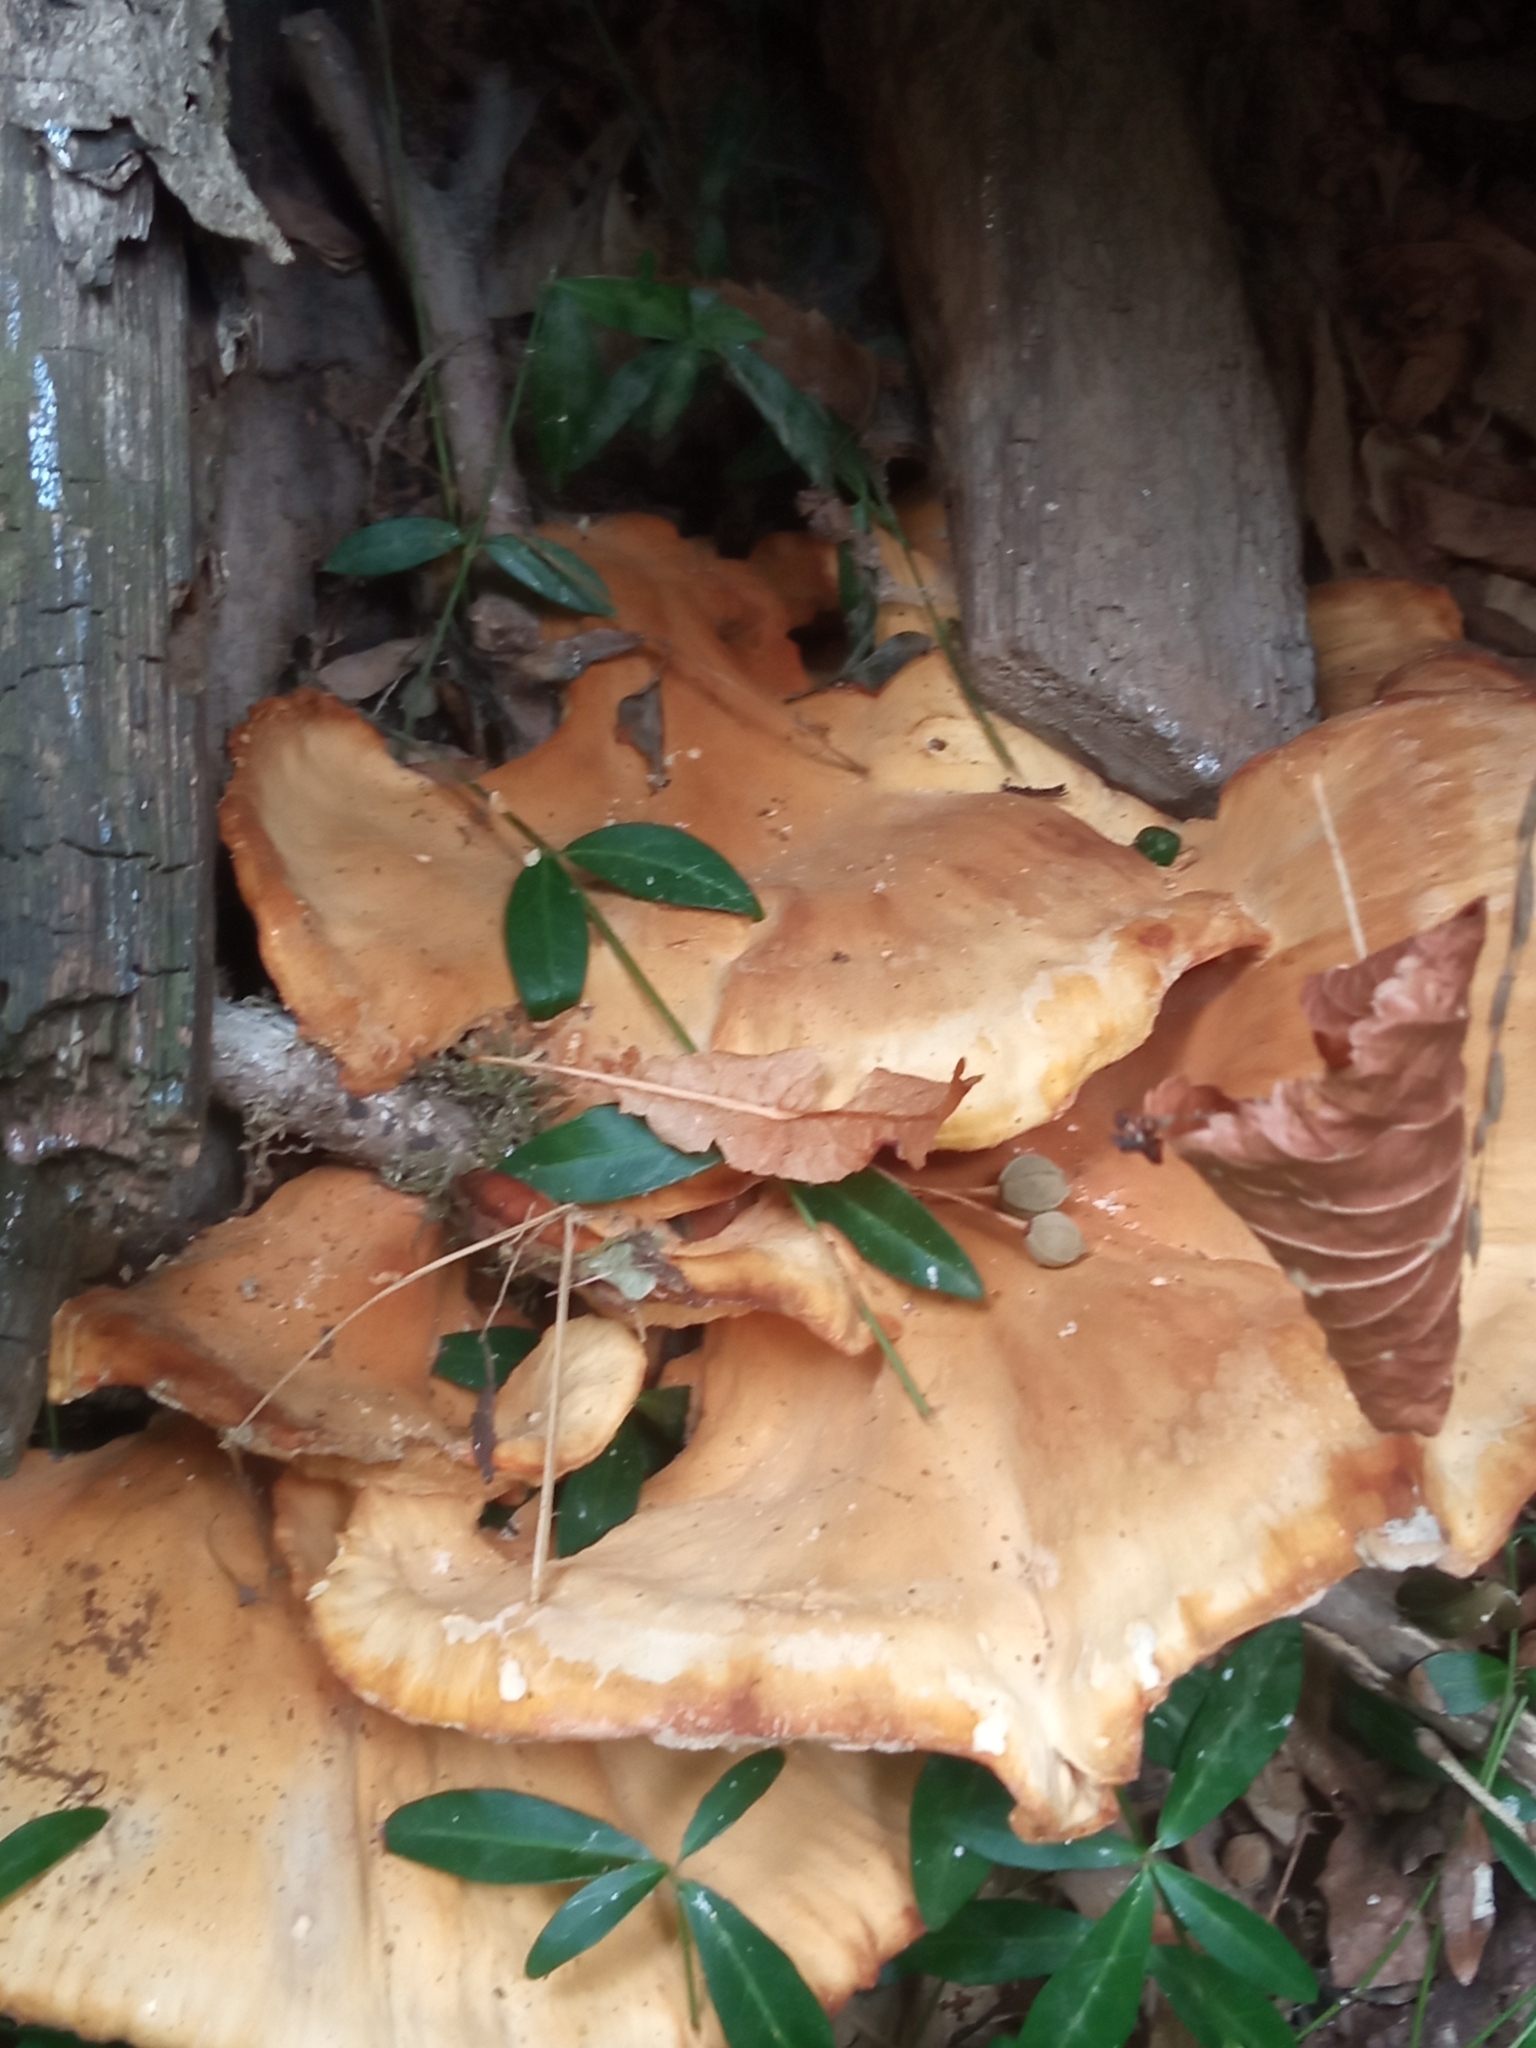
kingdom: Fungi
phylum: Basidiomycota
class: Agaricomycetes
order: Polyporales
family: Laetiporaceae
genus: Laetiporus
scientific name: Laetiporus sulphureus
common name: Chicken of the woods
